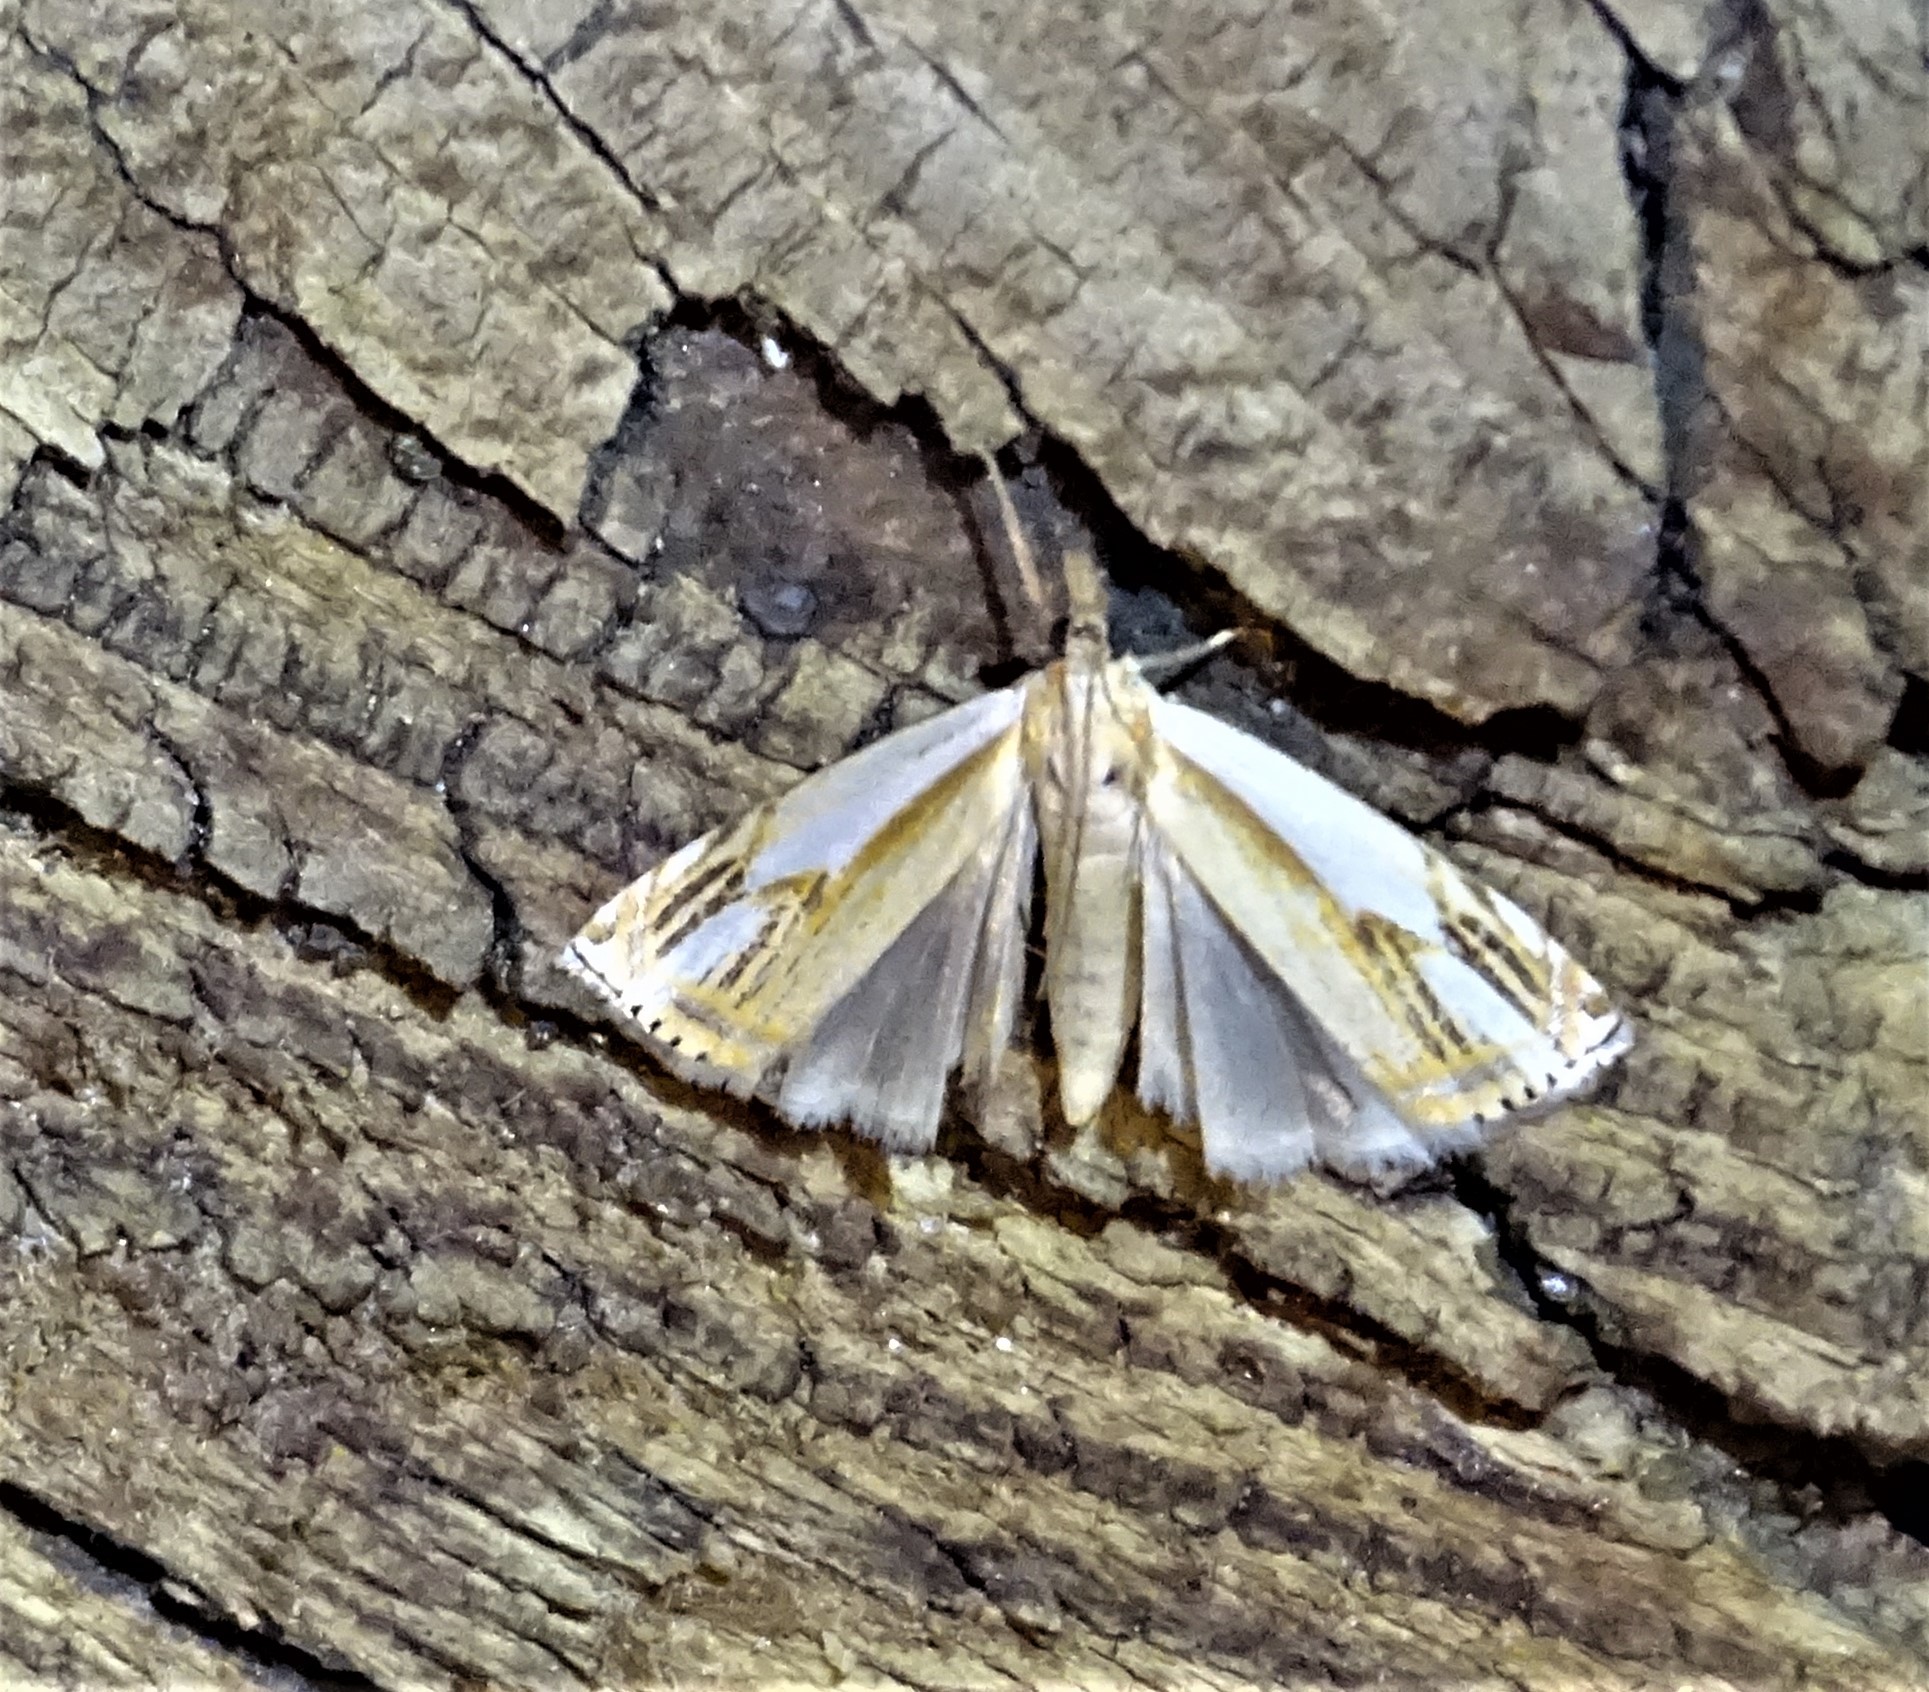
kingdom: Animalia
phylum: Arthropoda
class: Insecta
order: Lepidoptera
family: Crambidae
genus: Crambus
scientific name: Crambus agitatellus
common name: Double-banded grass-veneer
